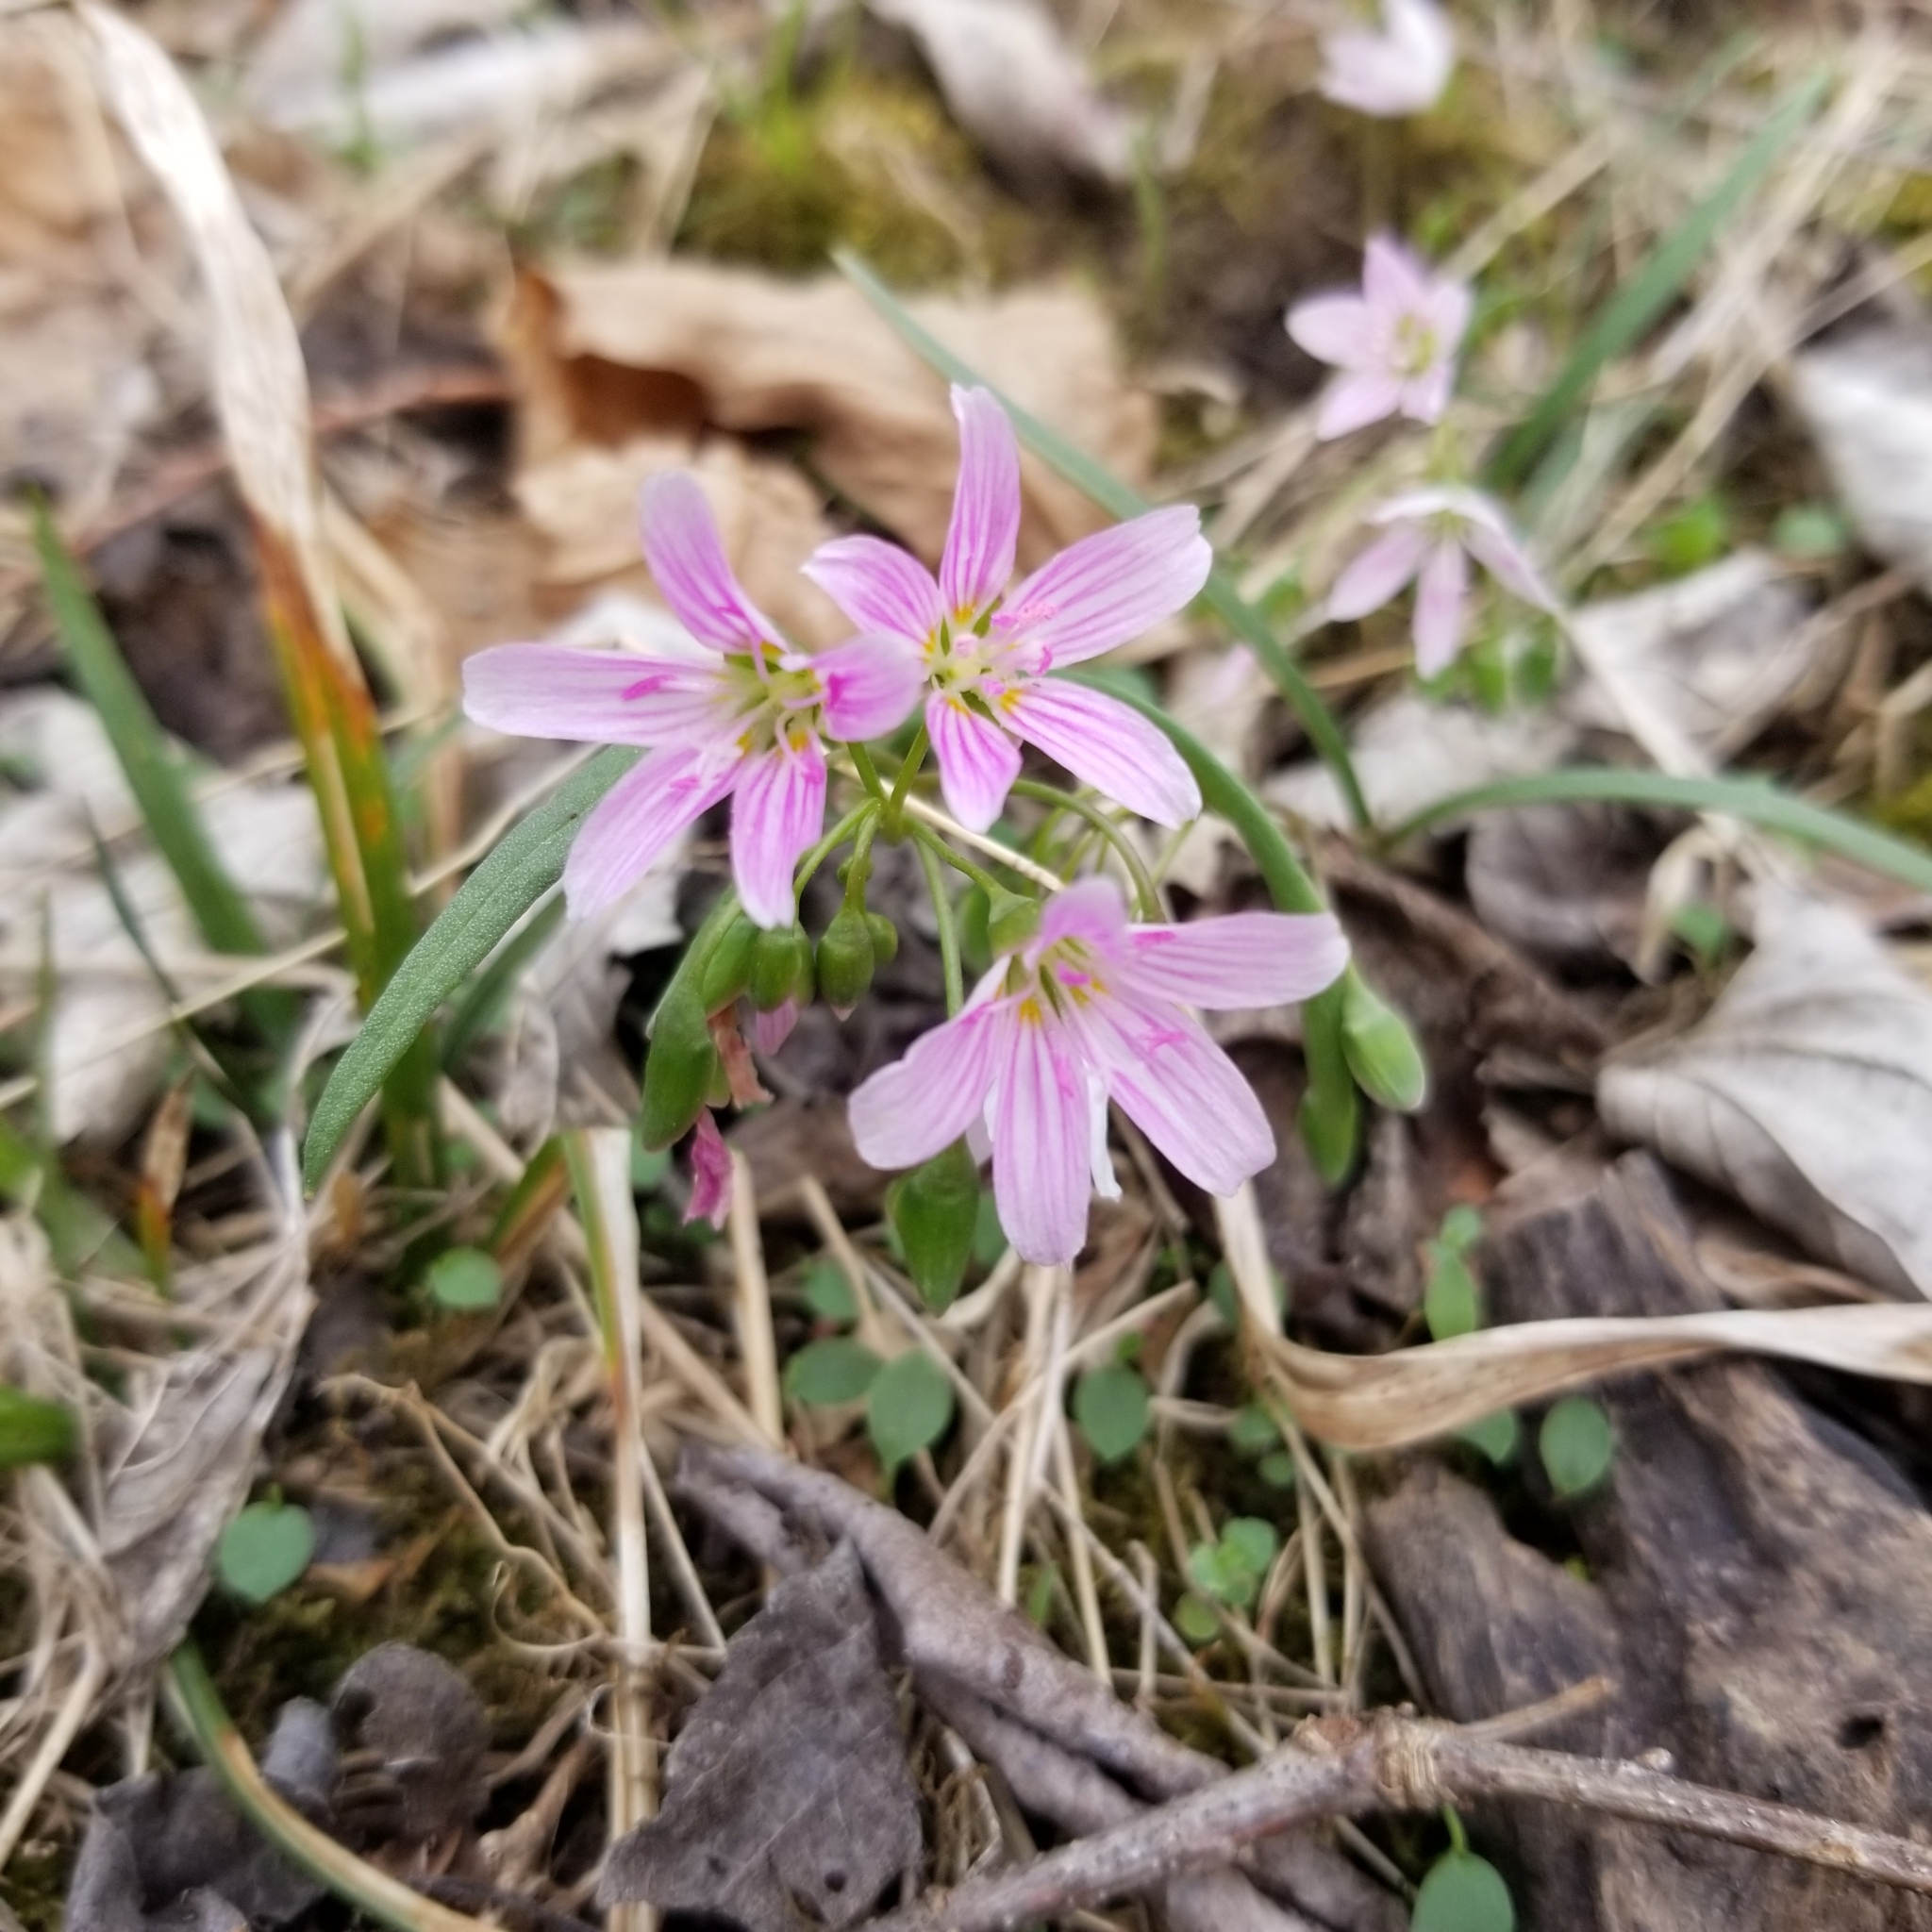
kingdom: Plantae
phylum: Tracheophyta
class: Magnoliopsida
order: Caryophyllales
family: Montiaceae
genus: Claytonia
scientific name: Claytonia virginica
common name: Virginia springbeauty
